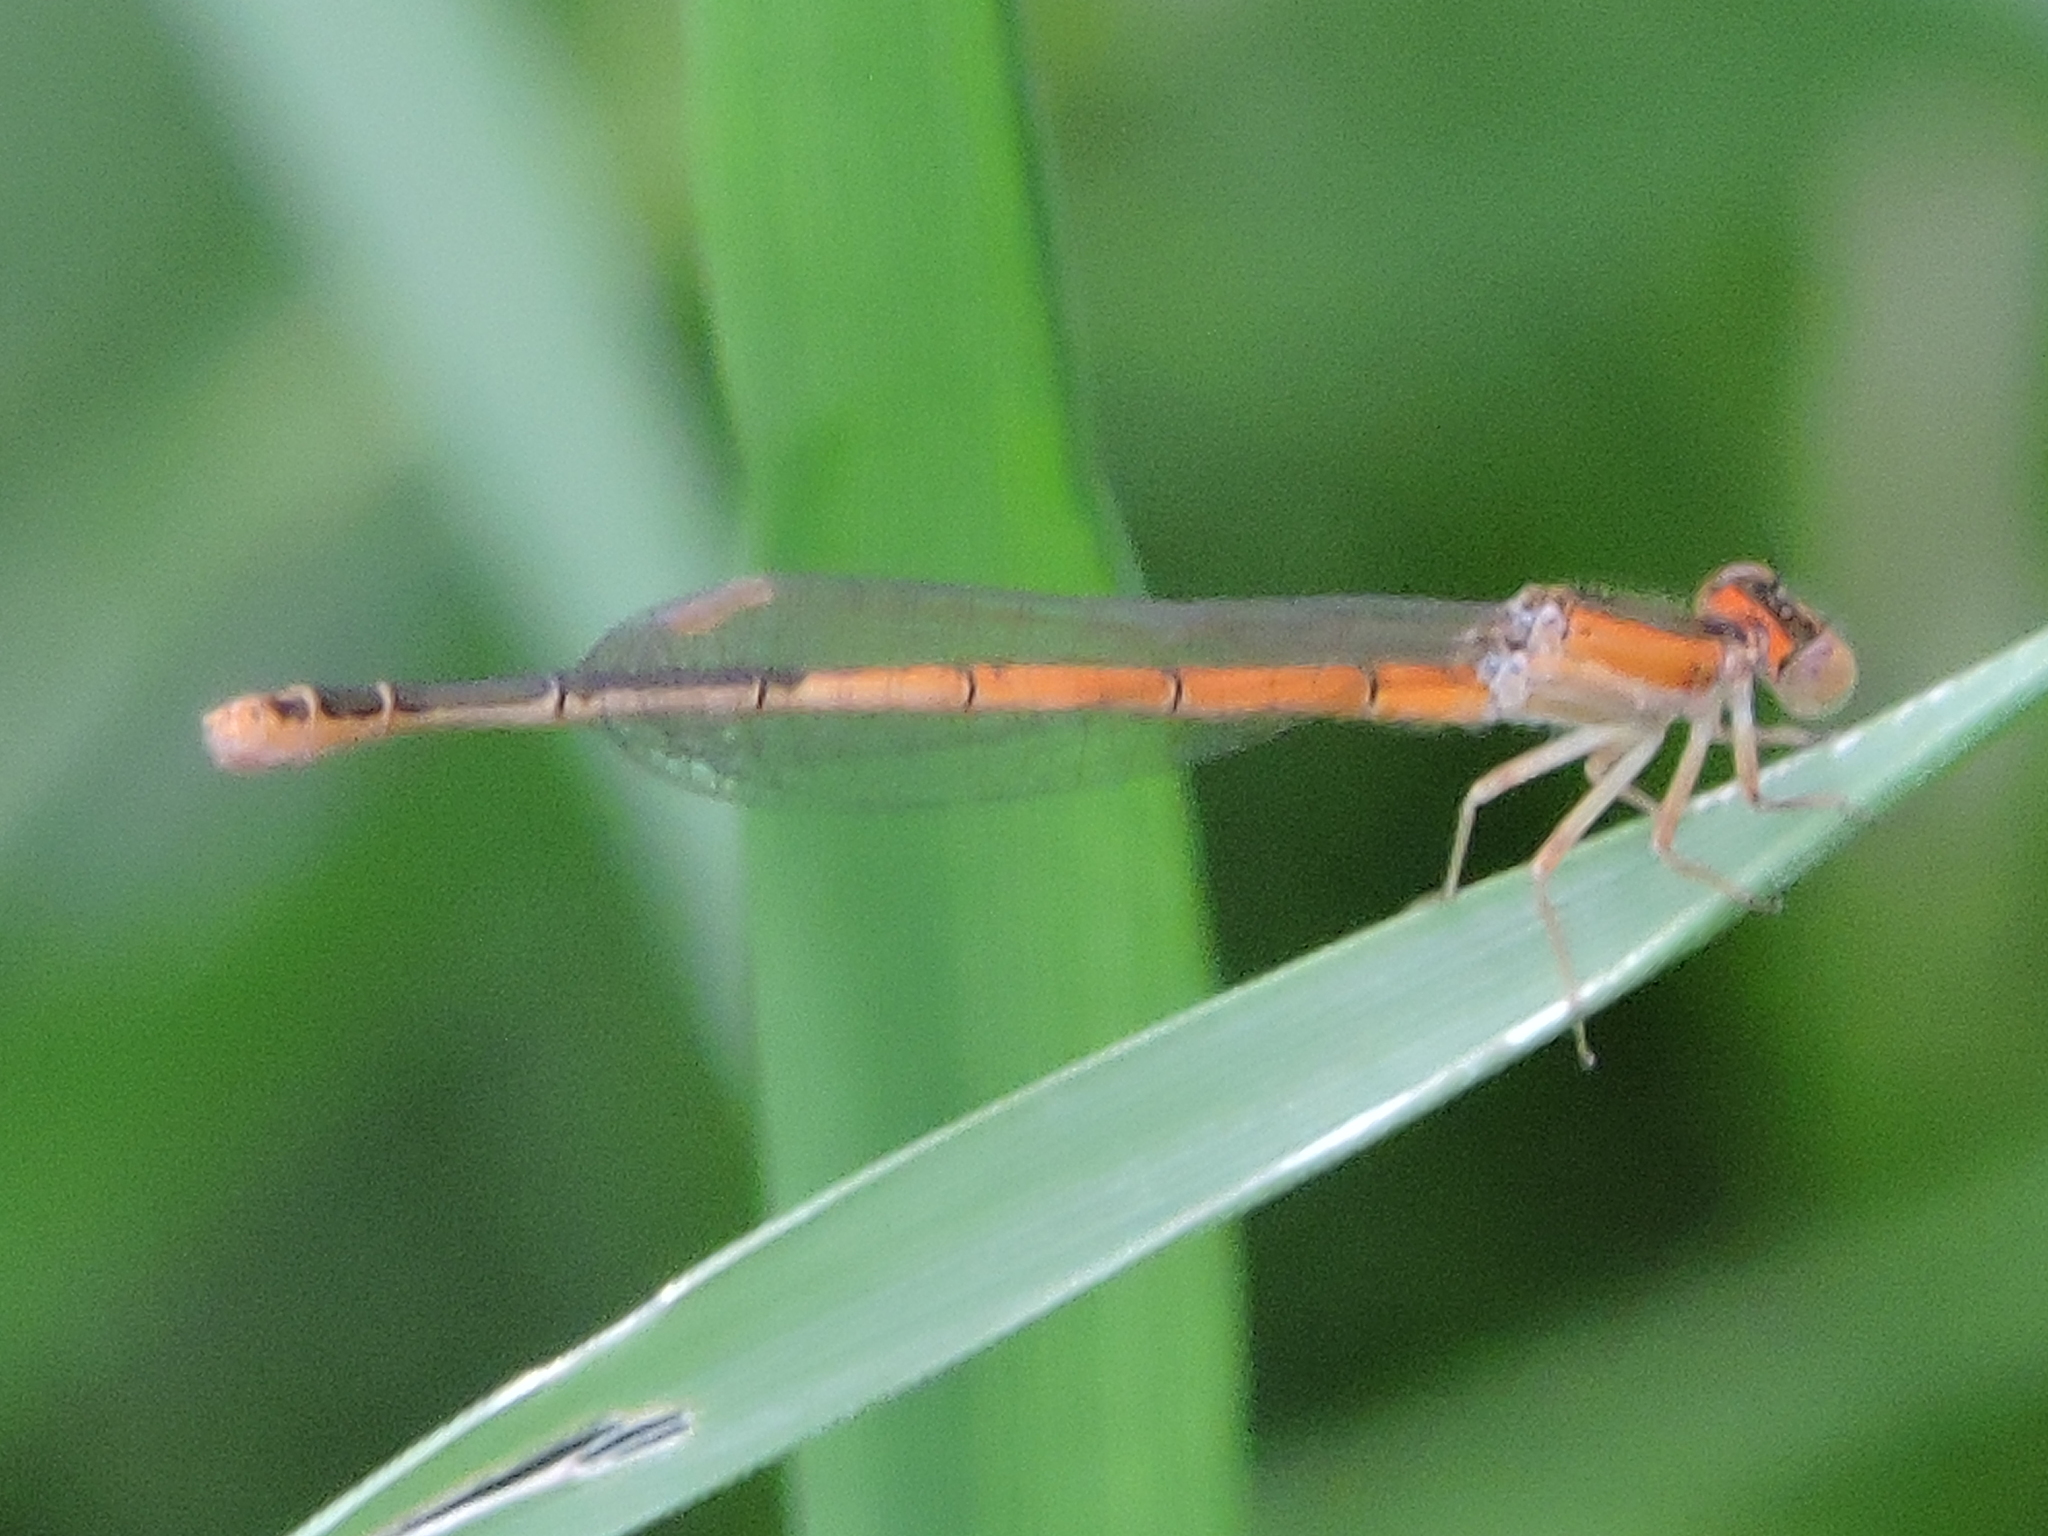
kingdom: Animalia
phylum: Arthropoda
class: Insecta
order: Odonata
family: Coenagrionidae
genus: Ischnura
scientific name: Ischnura hastata
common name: Citrine forktail
